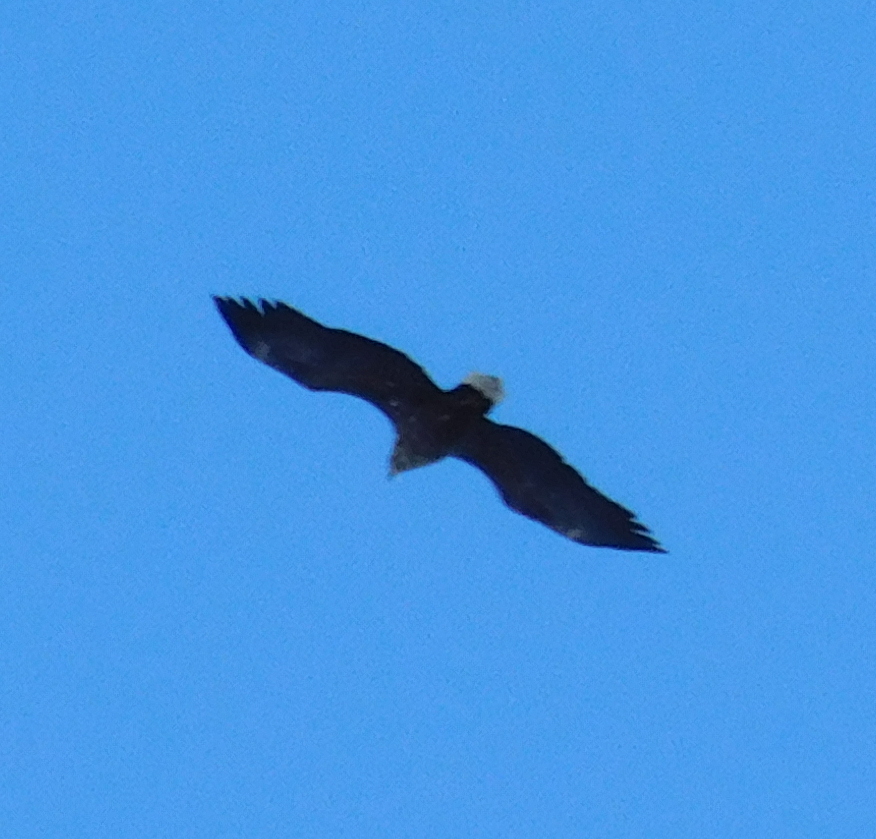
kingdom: Animalia
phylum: Chordata
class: Aves
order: Accipitriformes
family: Accipitridae
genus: Haliaeetus
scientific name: Haliaeetus albicilla
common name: White-tailed eagle
